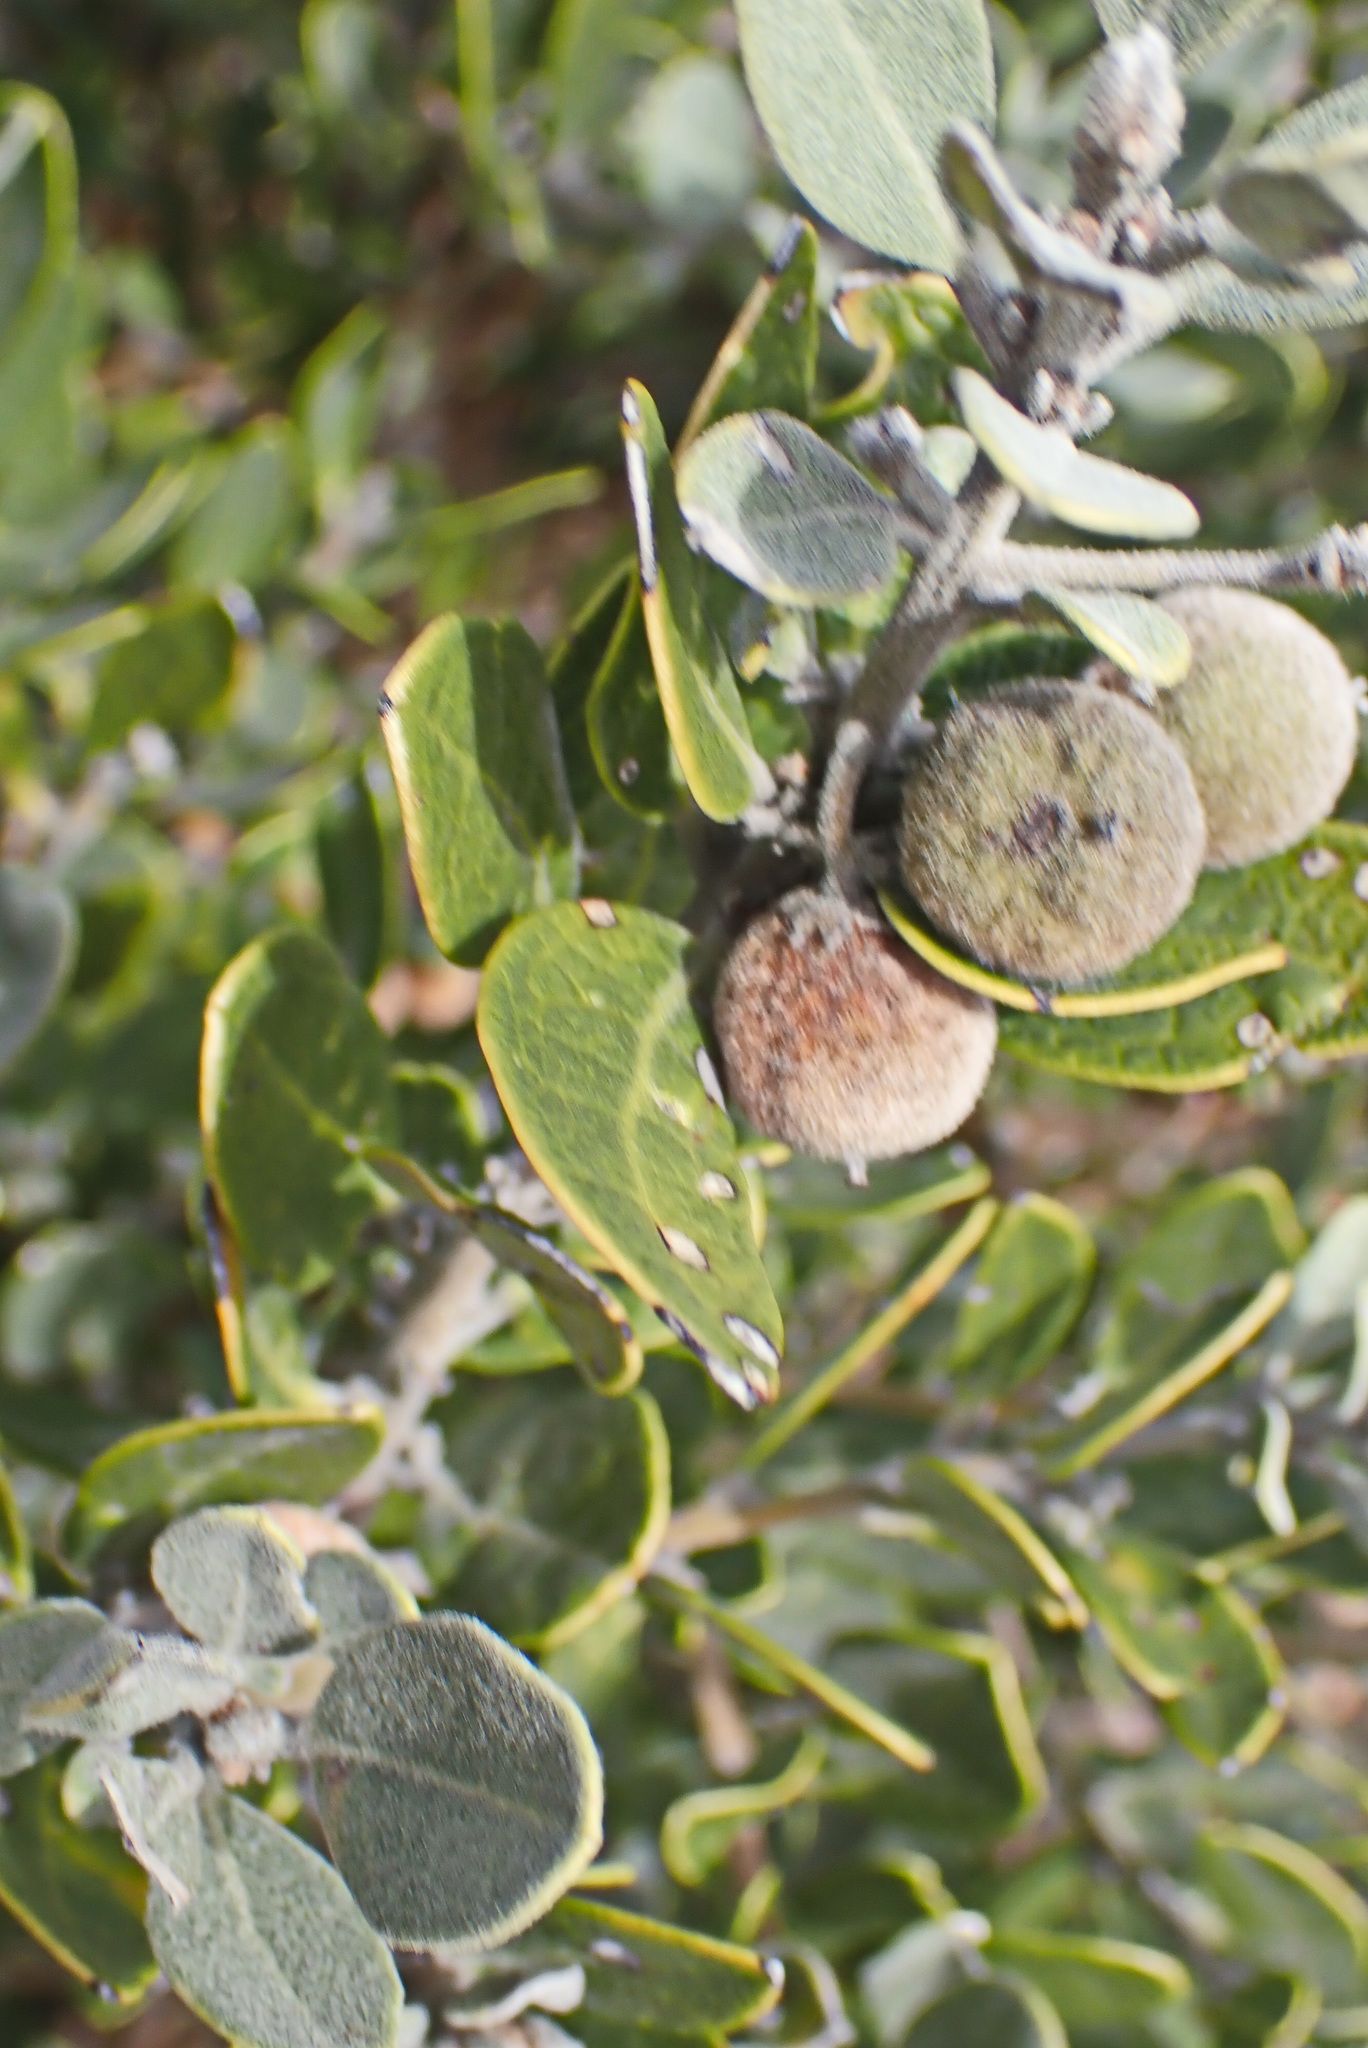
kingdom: Plantae
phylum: Tracheophyta
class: Magnoliopsida
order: Ericales
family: Ebenaceae
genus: Euclea
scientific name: Euclea polyandra
